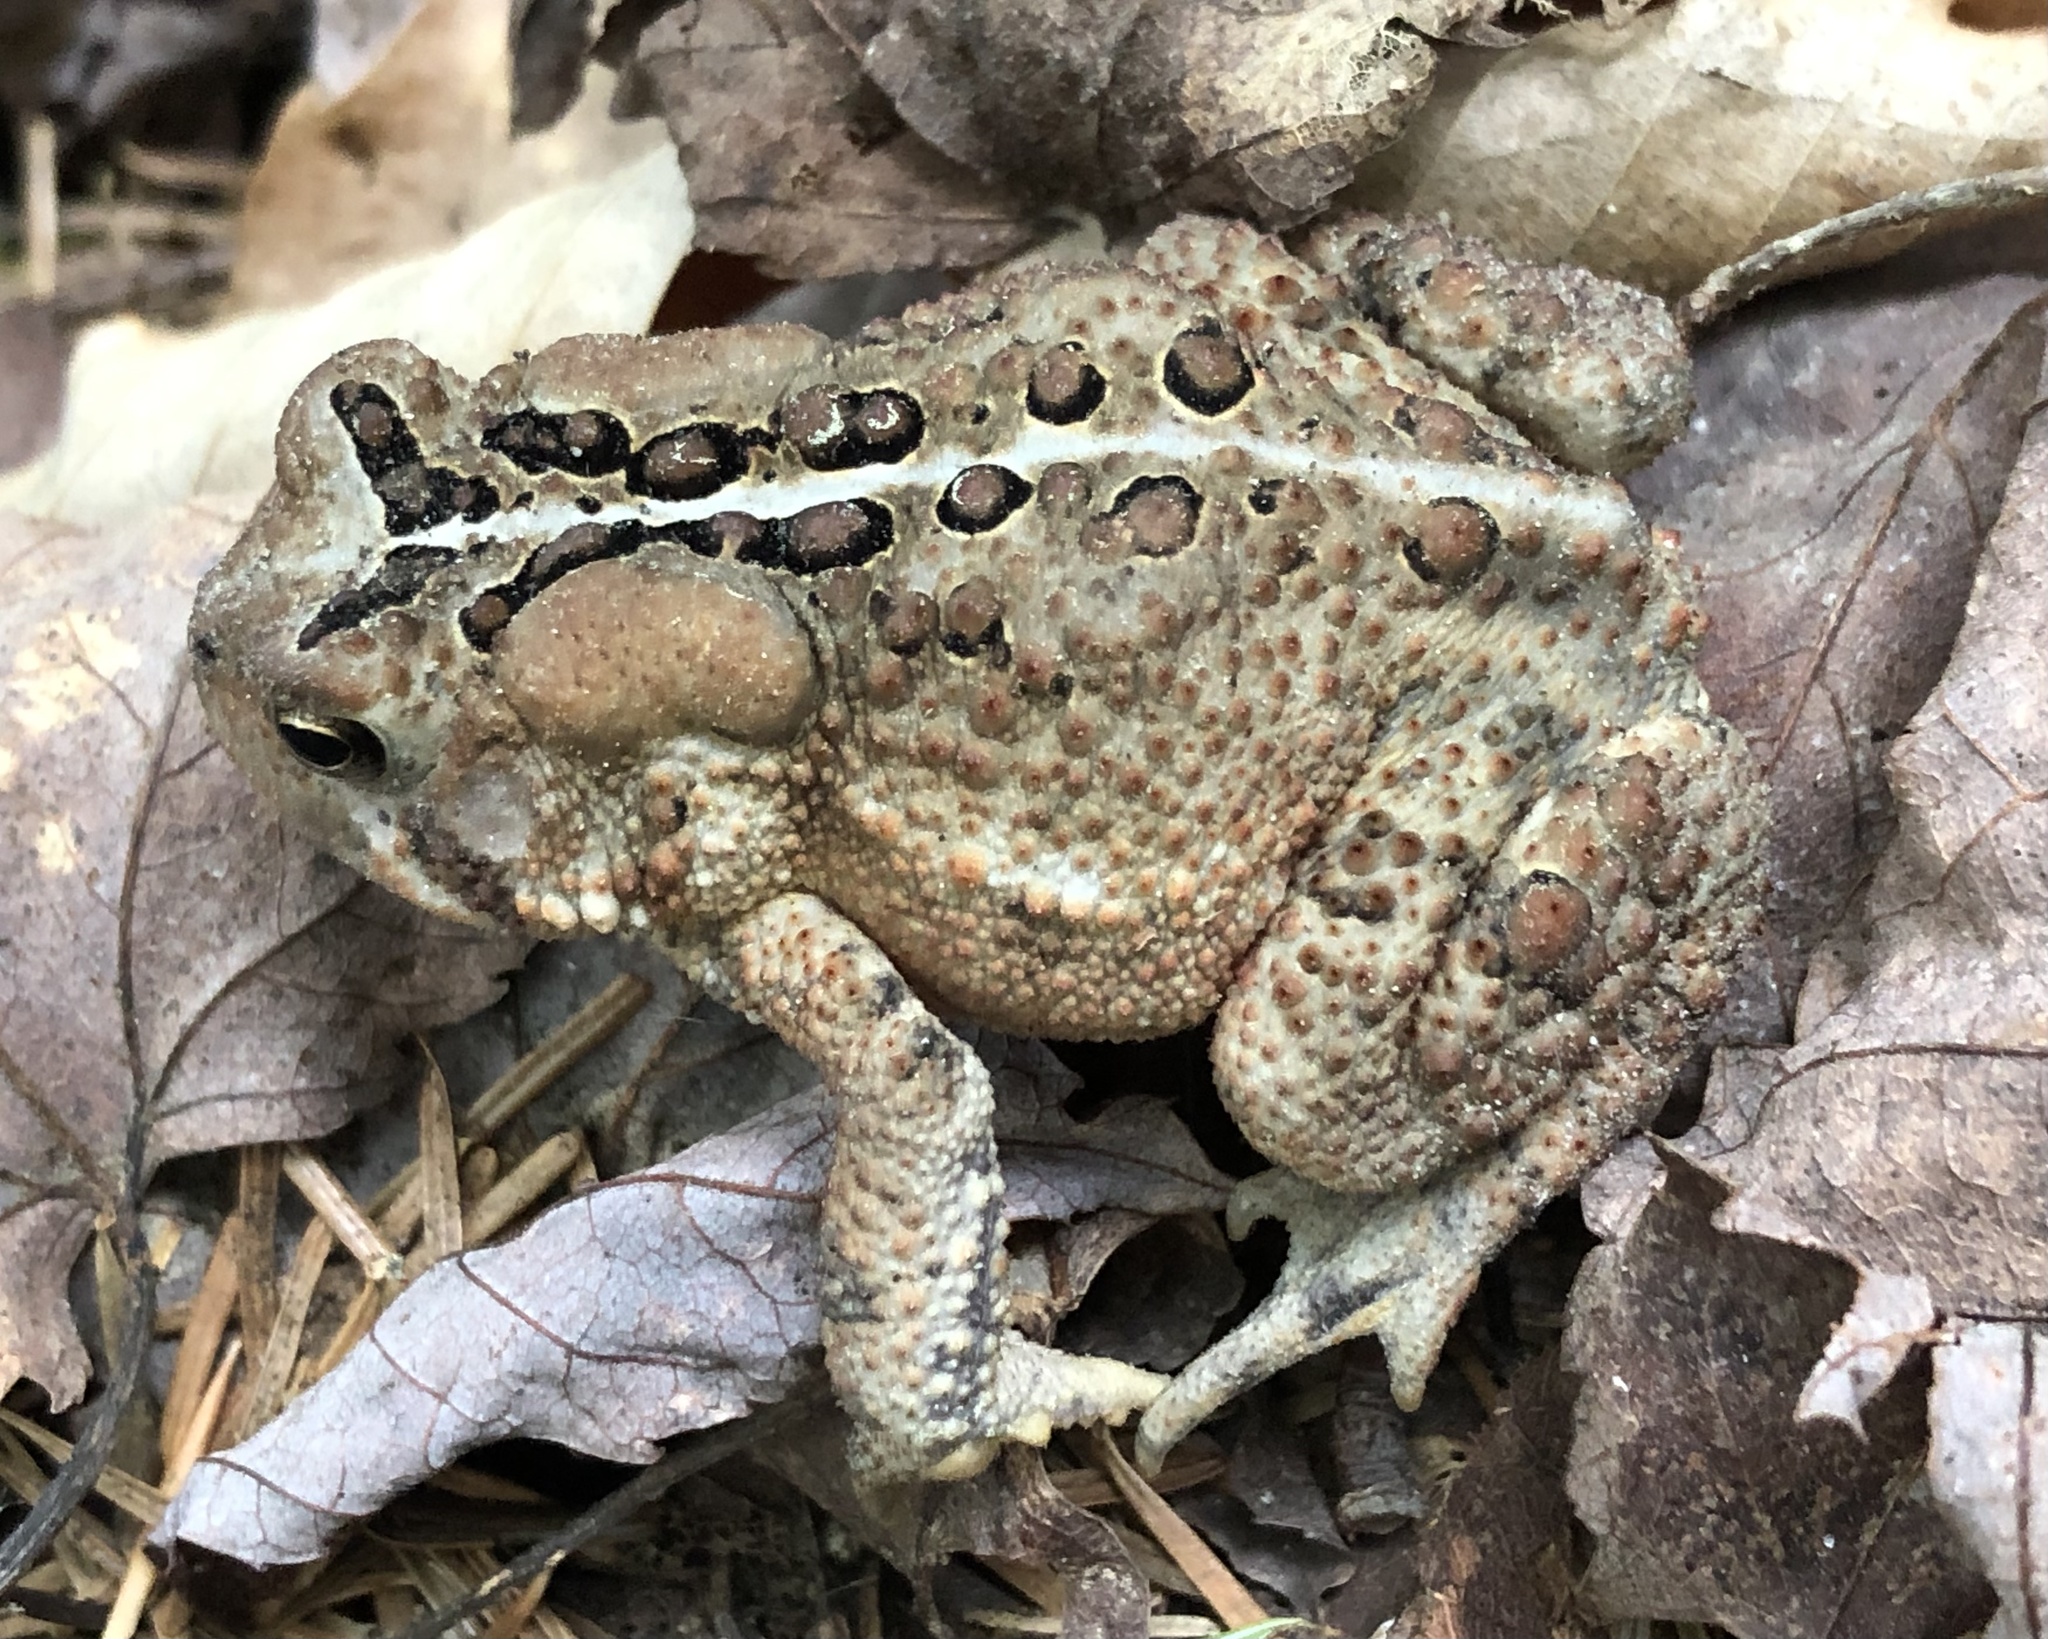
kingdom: Animalia
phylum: Chordata
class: Amphibia
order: Anura
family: Bufonidae
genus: Anaxyrus
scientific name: Anaxyrus americanus
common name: American toad
